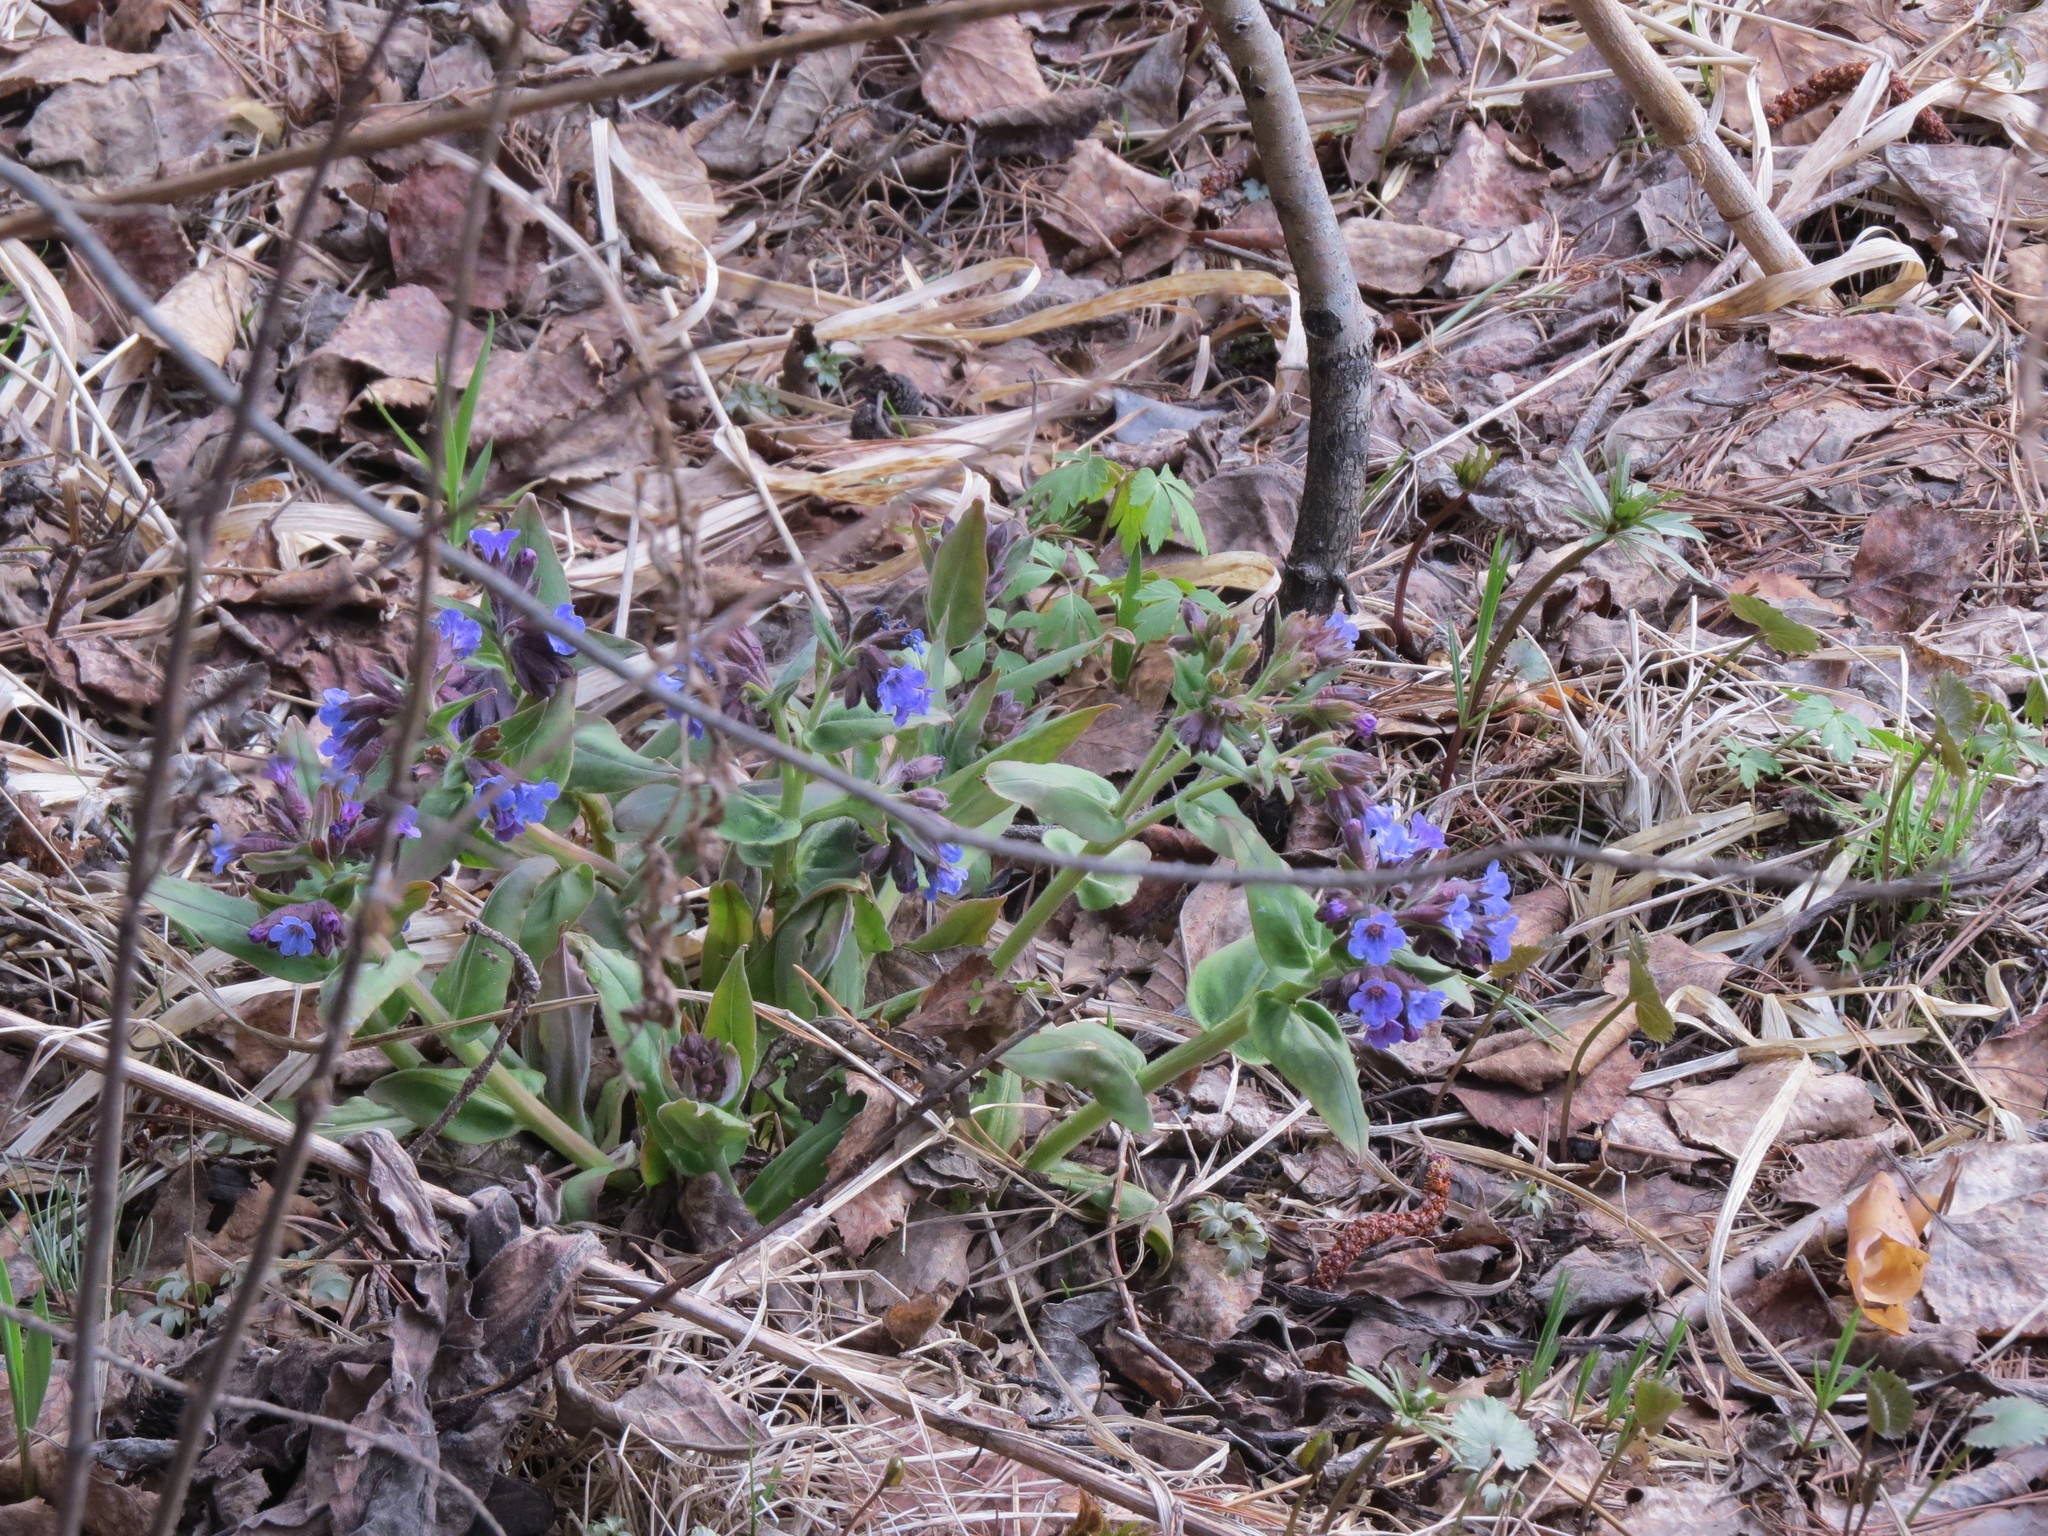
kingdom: Plantae
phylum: Tracheophyta
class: Magnoliopsida
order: Boraginales
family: Boraginaceae
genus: Pulmonaria
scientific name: Pulmonaria mollis
